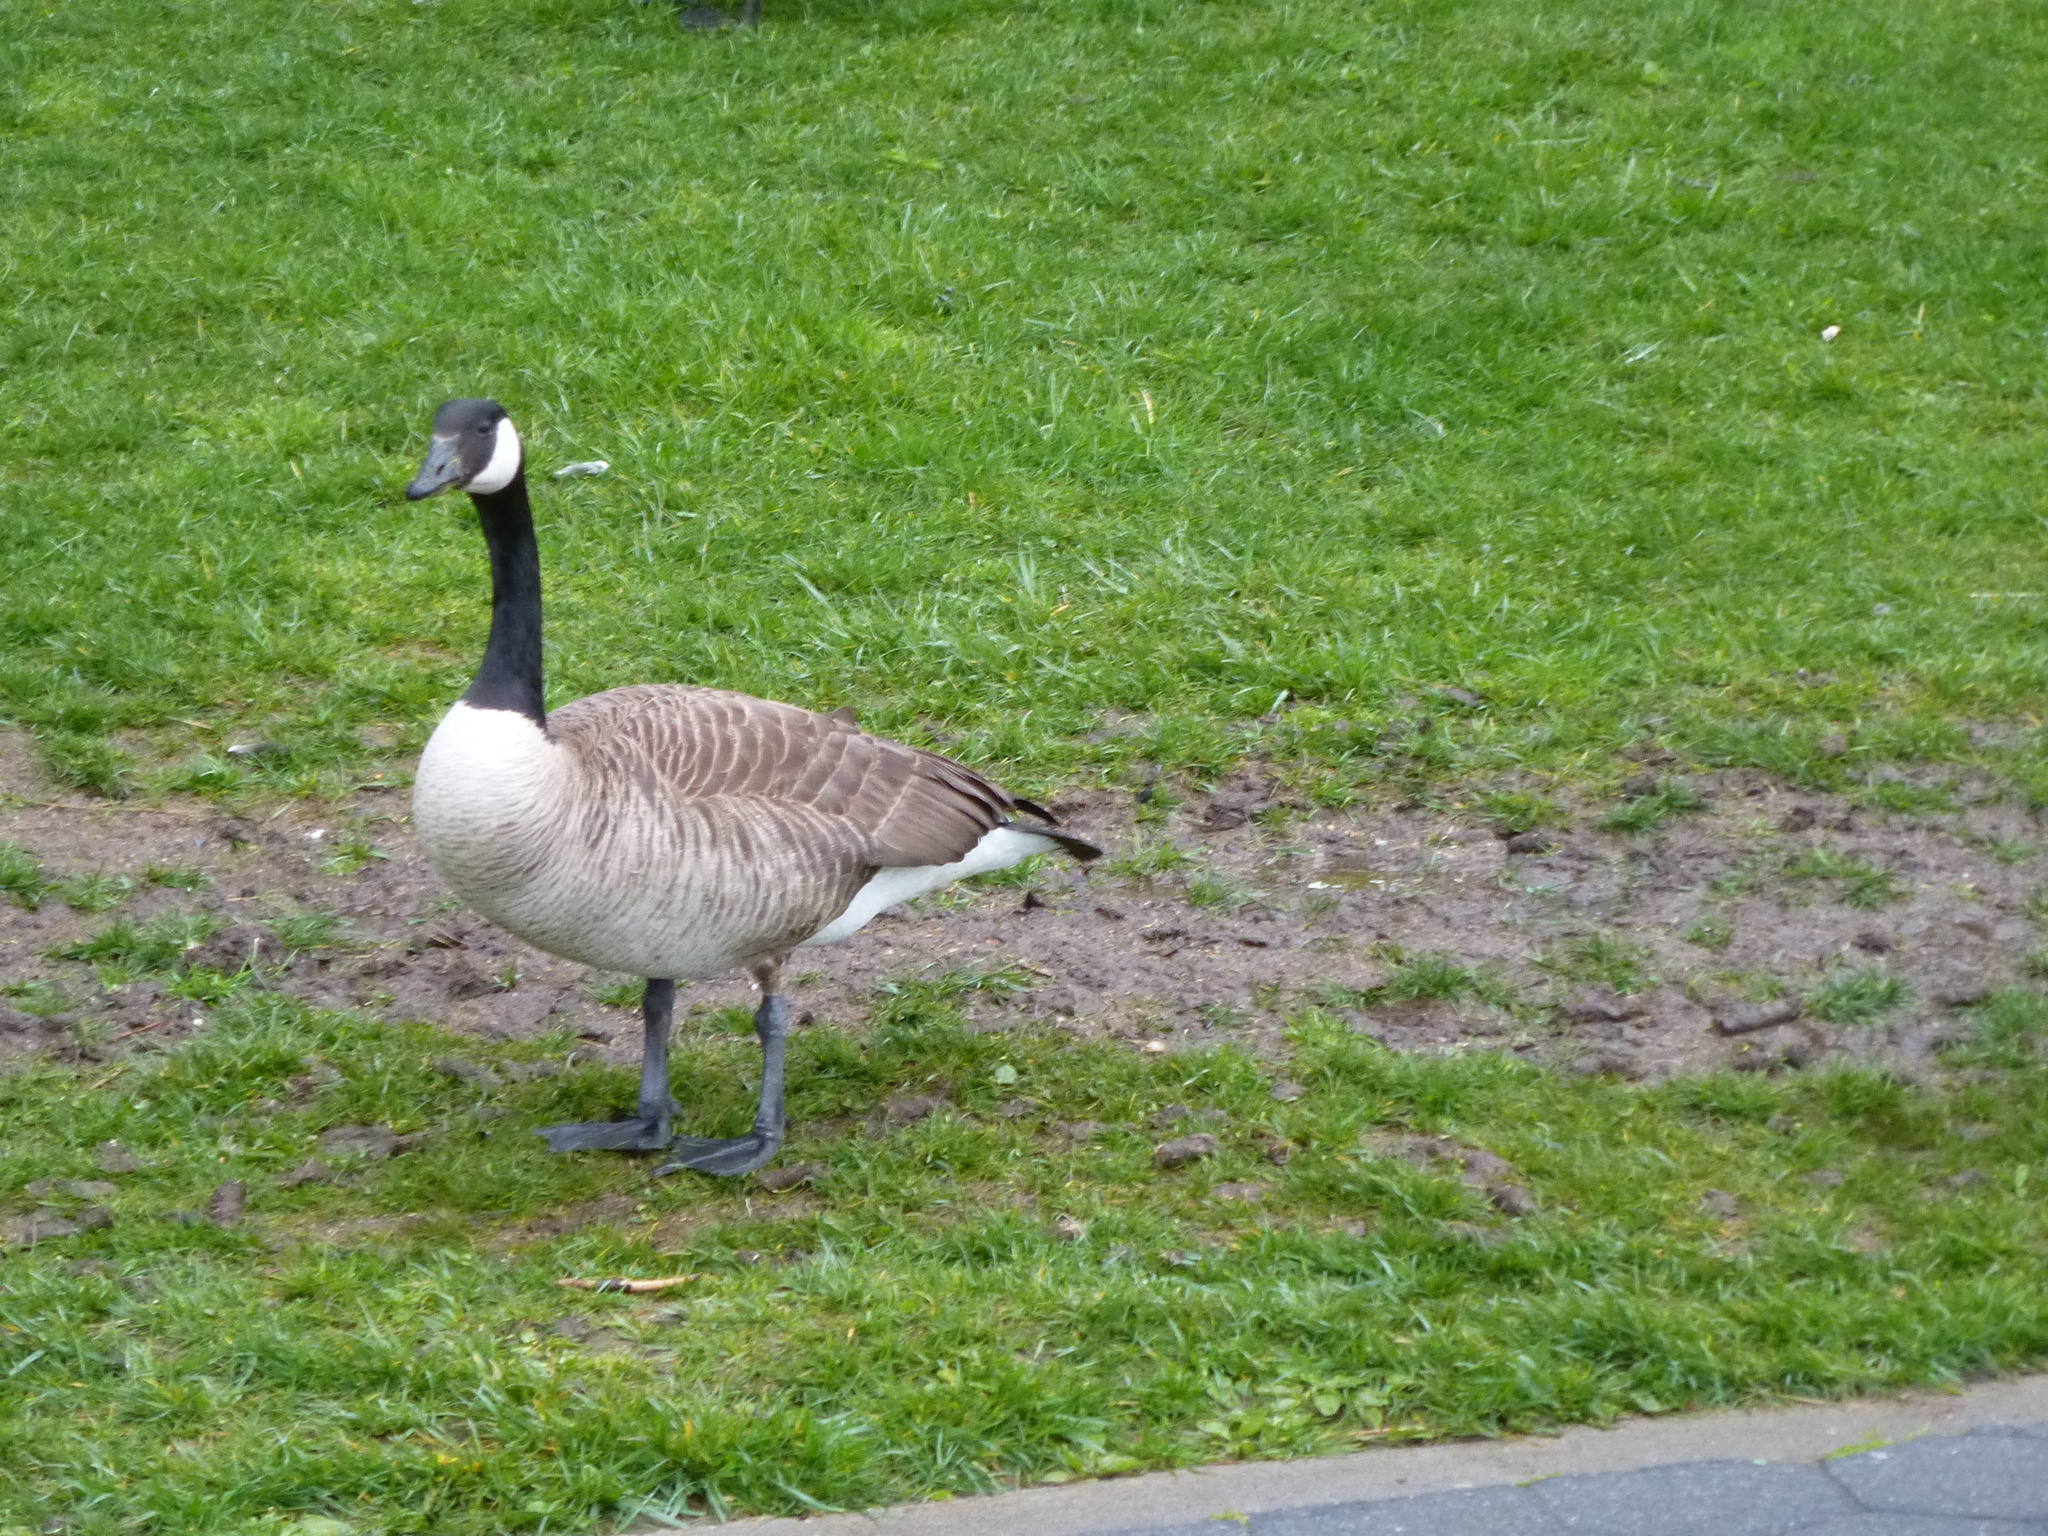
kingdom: Animalia
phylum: Chordata
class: Aves
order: Anseriformes
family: Anatidae
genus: Branta
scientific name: Branta canadensis
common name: Canada goose
